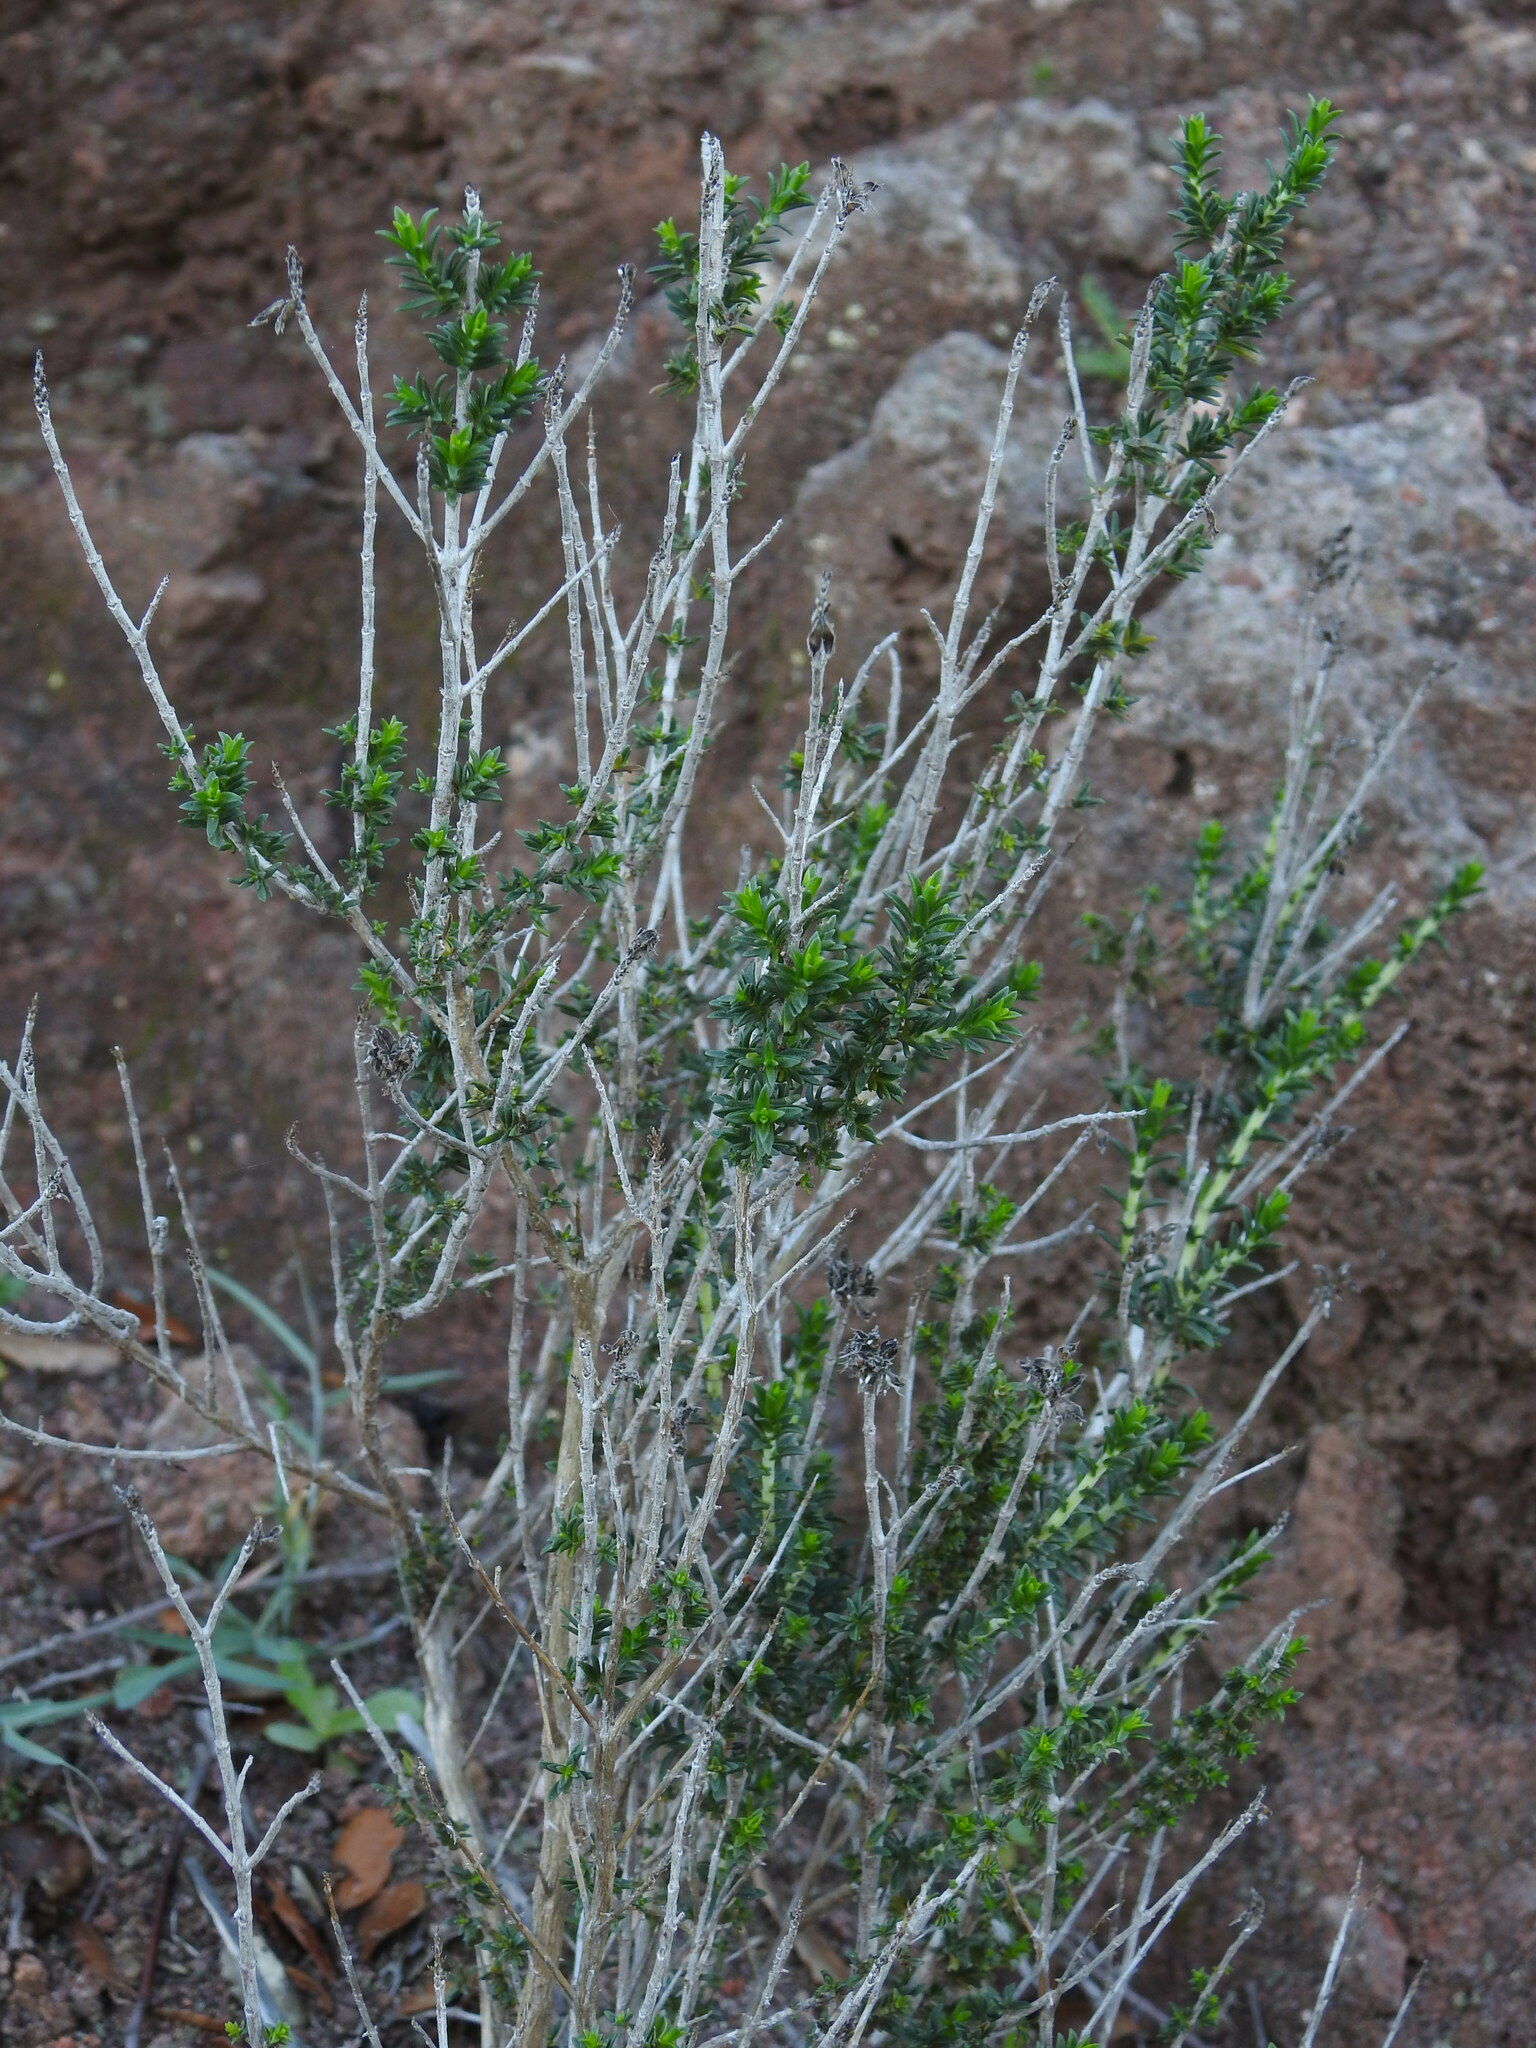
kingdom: Plantae
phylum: Tracheophyta
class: Magnoliopsida
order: Lamiales
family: Lamiaceae
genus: Thymbra
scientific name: Thymbra capitata
